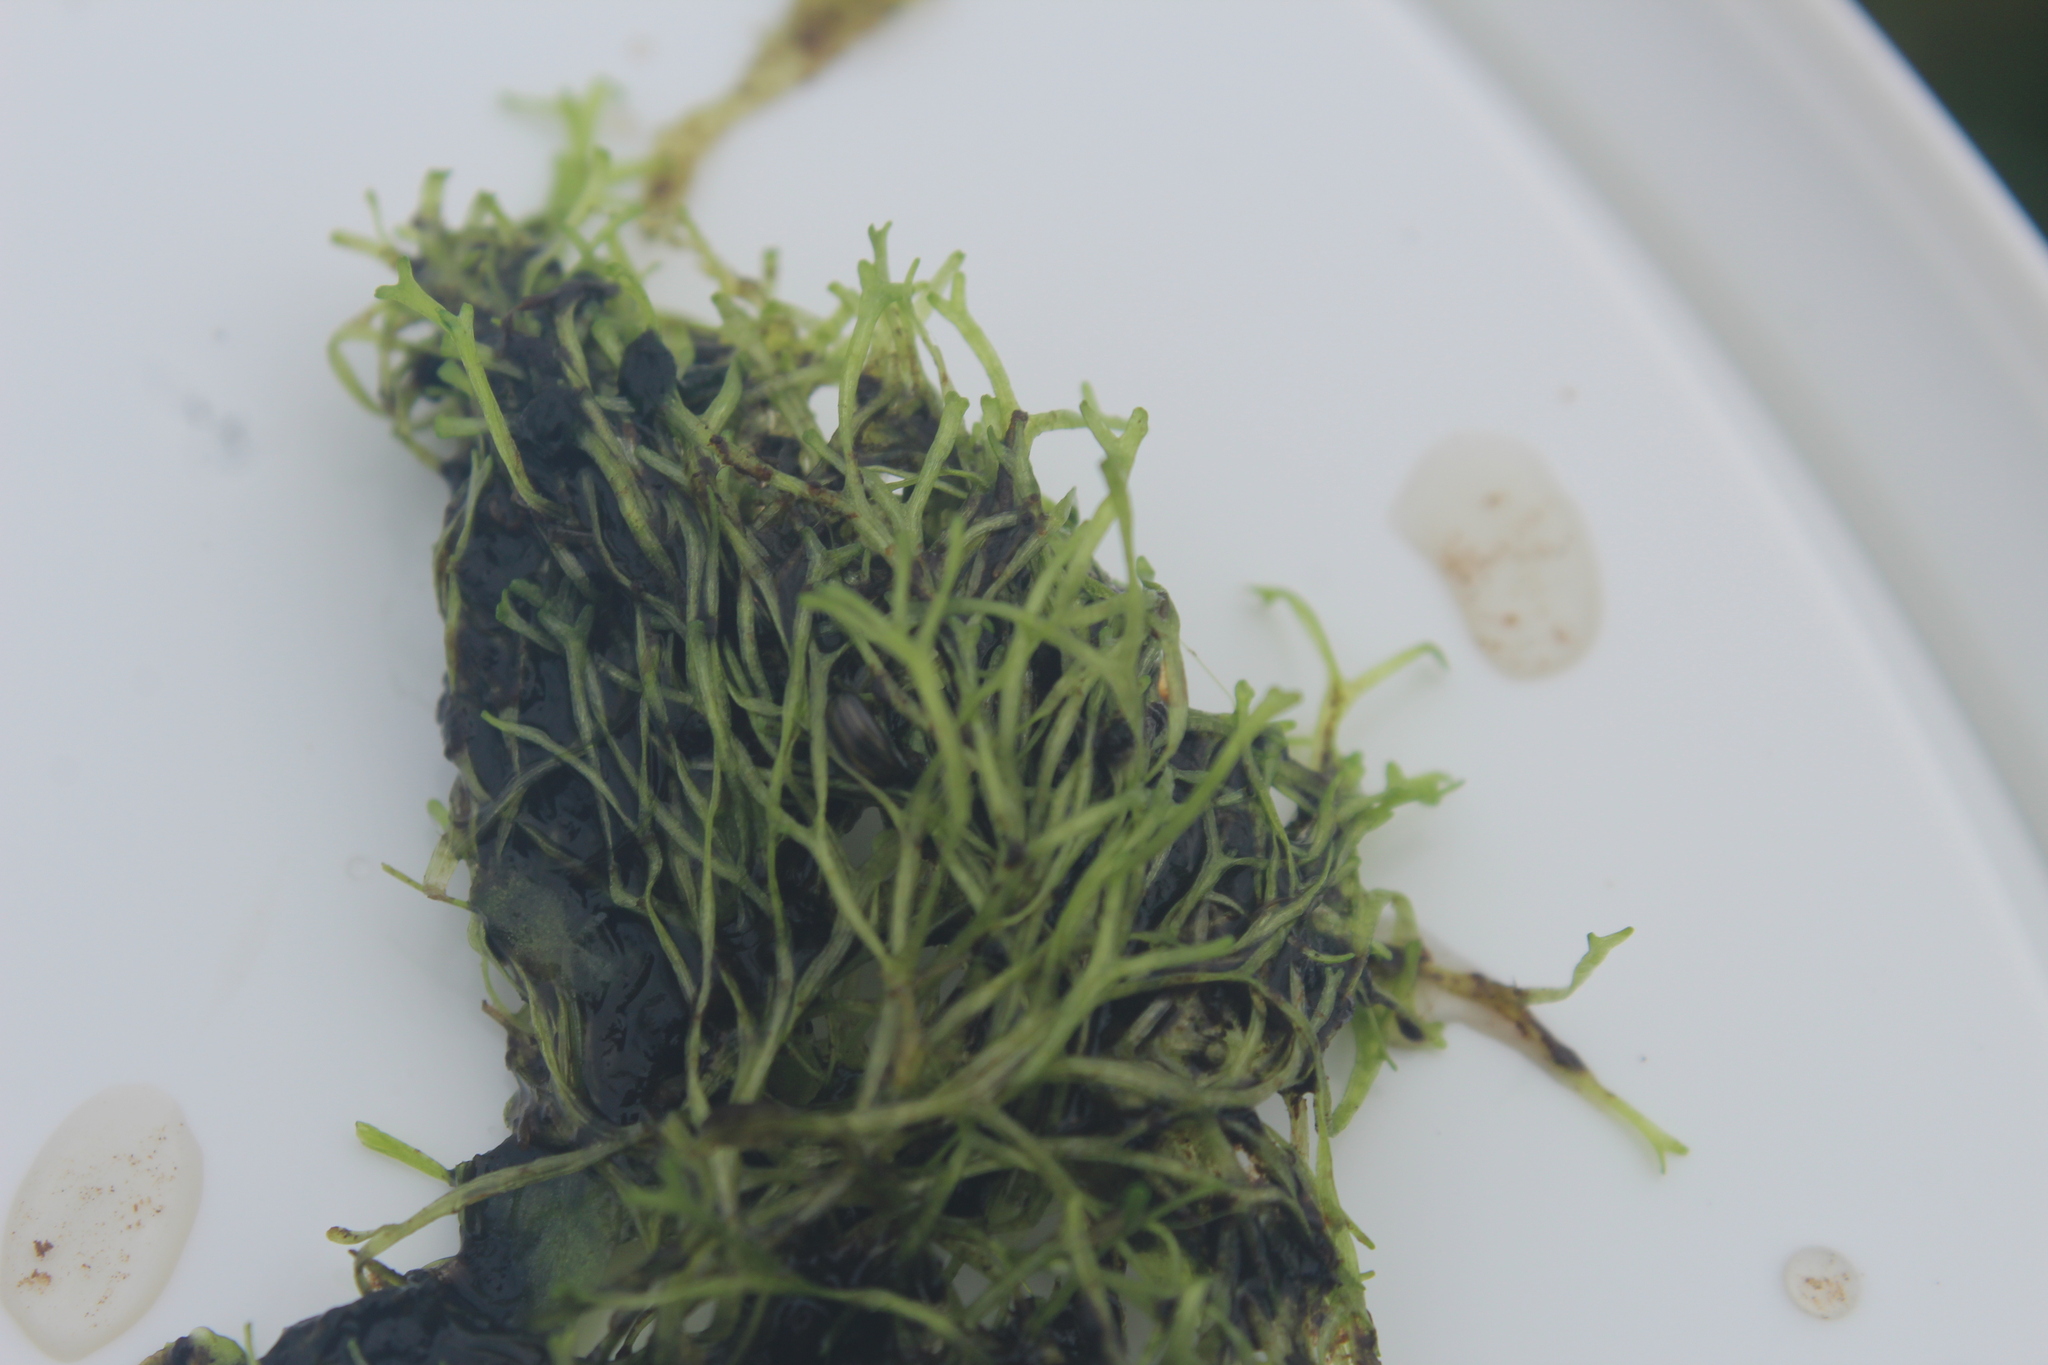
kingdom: Plantae
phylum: Marchantiophyta
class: Marchantiopsida
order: Marchantiales
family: Ricciaceae
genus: Riccia
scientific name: Riccia fluitans
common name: Floating crystalwort
